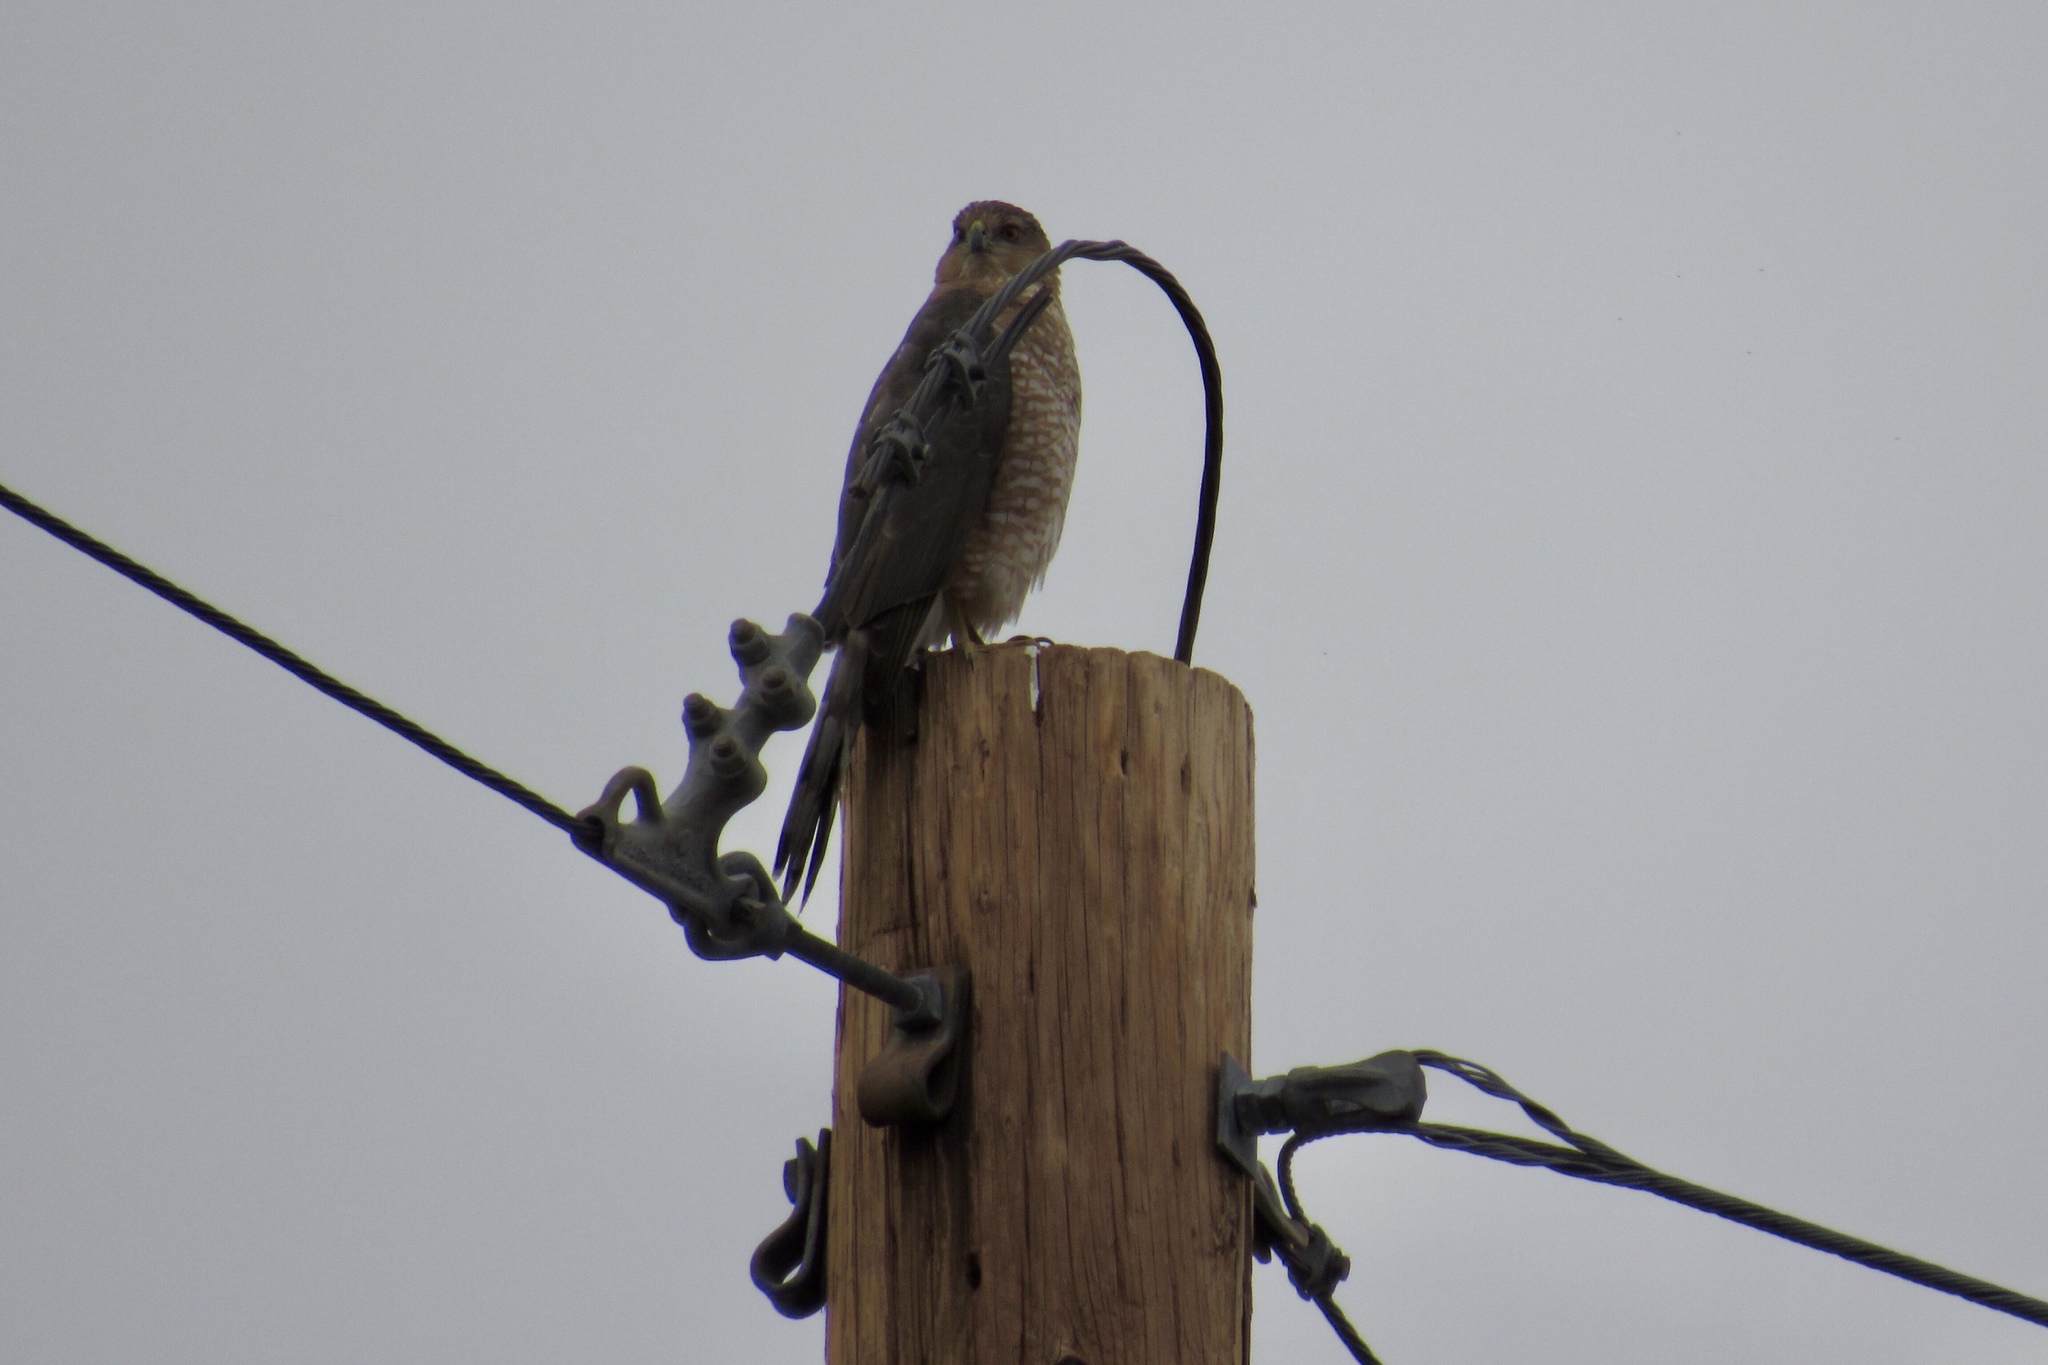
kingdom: Animalia
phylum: Chordata
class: Aves
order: Accipitriformes
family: Accipitridae
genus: Accipiter
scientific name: Accipiter cooperii
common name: Cooper's hawk
